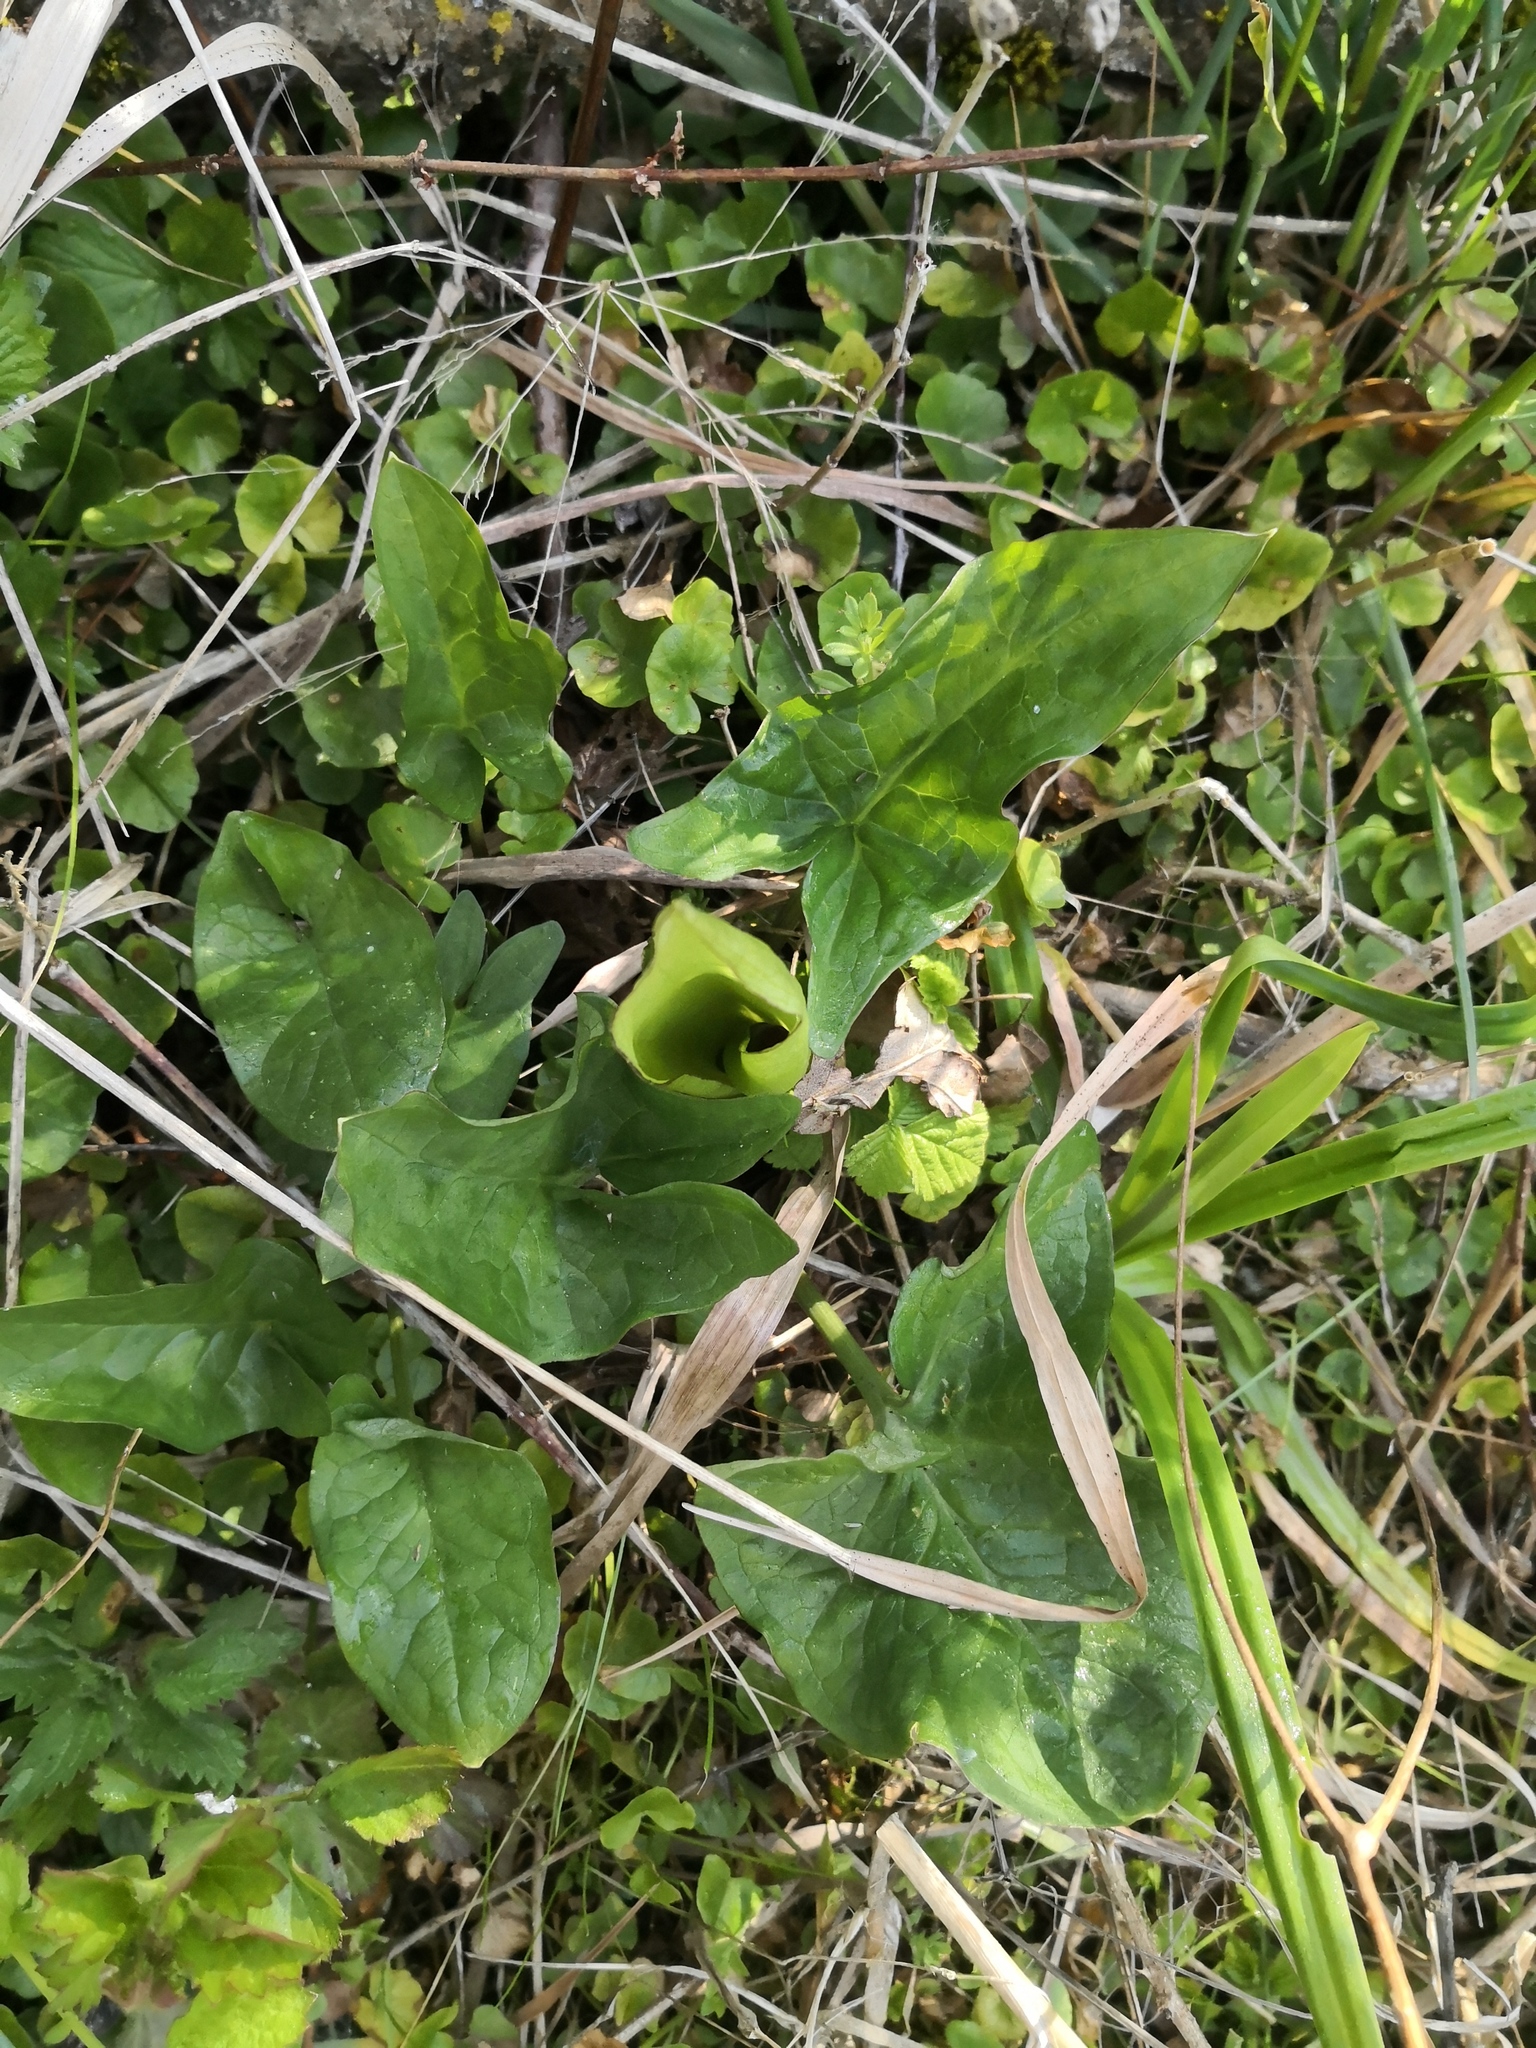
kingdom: Plantae
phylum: Tracheophyta
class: Liliopsida
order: Alismatales
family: Araceae
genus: Arum
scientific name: Arum maculatum
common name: Lords-and-ladies
